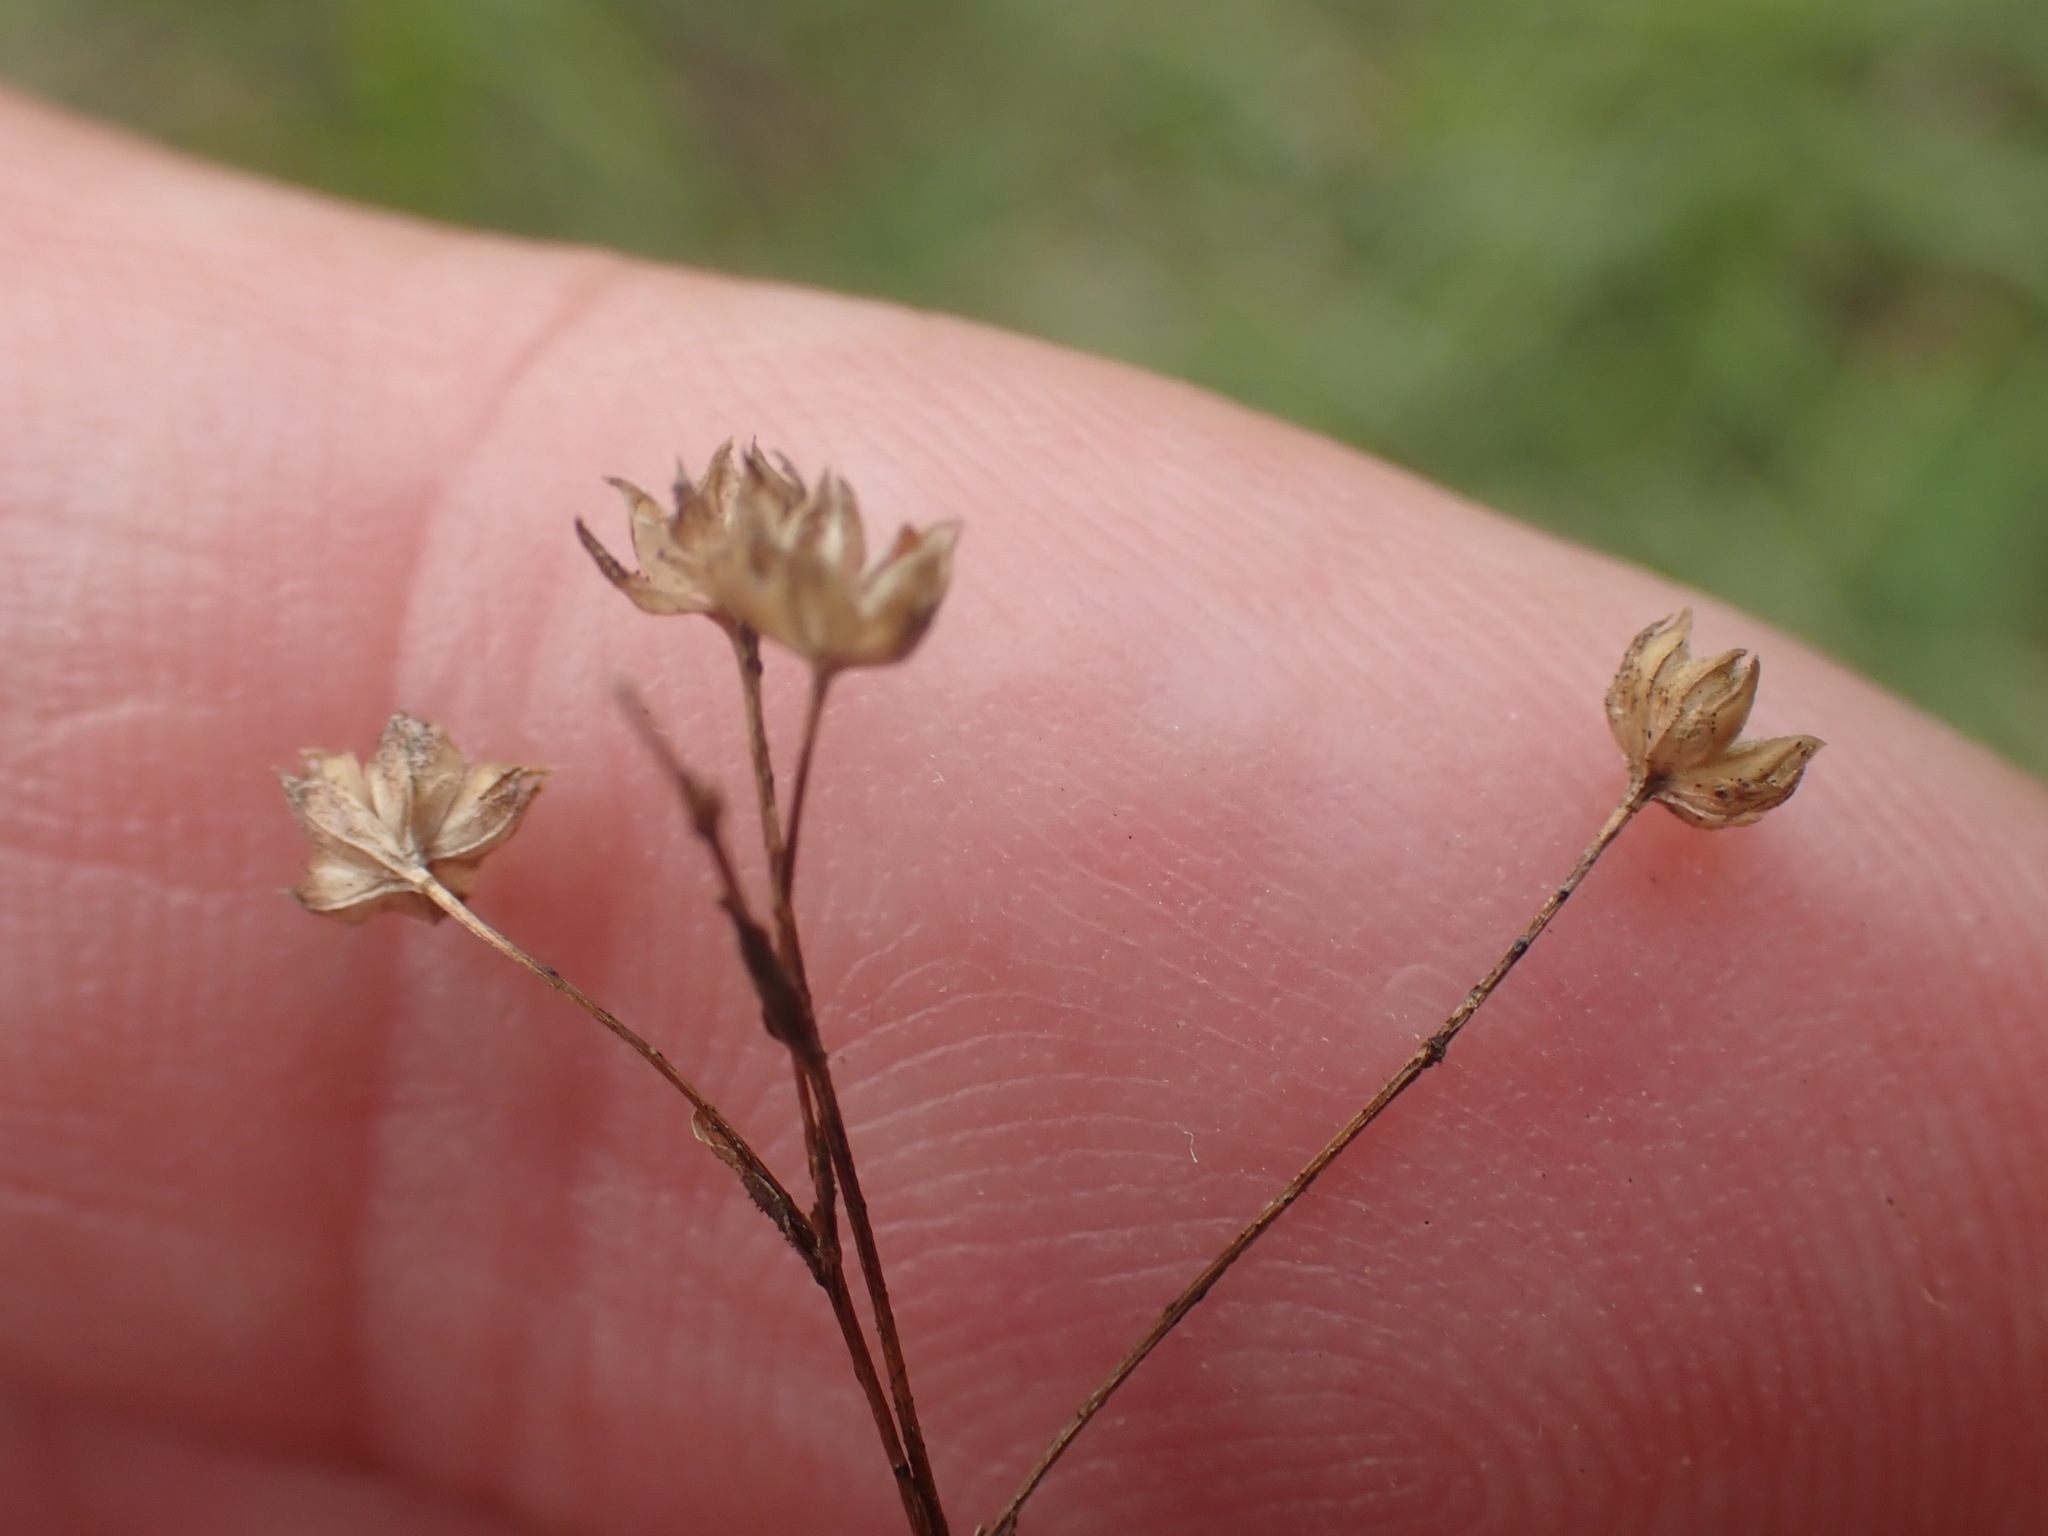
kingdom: Plantae
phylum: Tracheophyta
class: Magnoliopsida
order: Malpighiales
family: Linaceae
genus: Linum
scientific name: Linum catharticum
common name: Fairy flax
